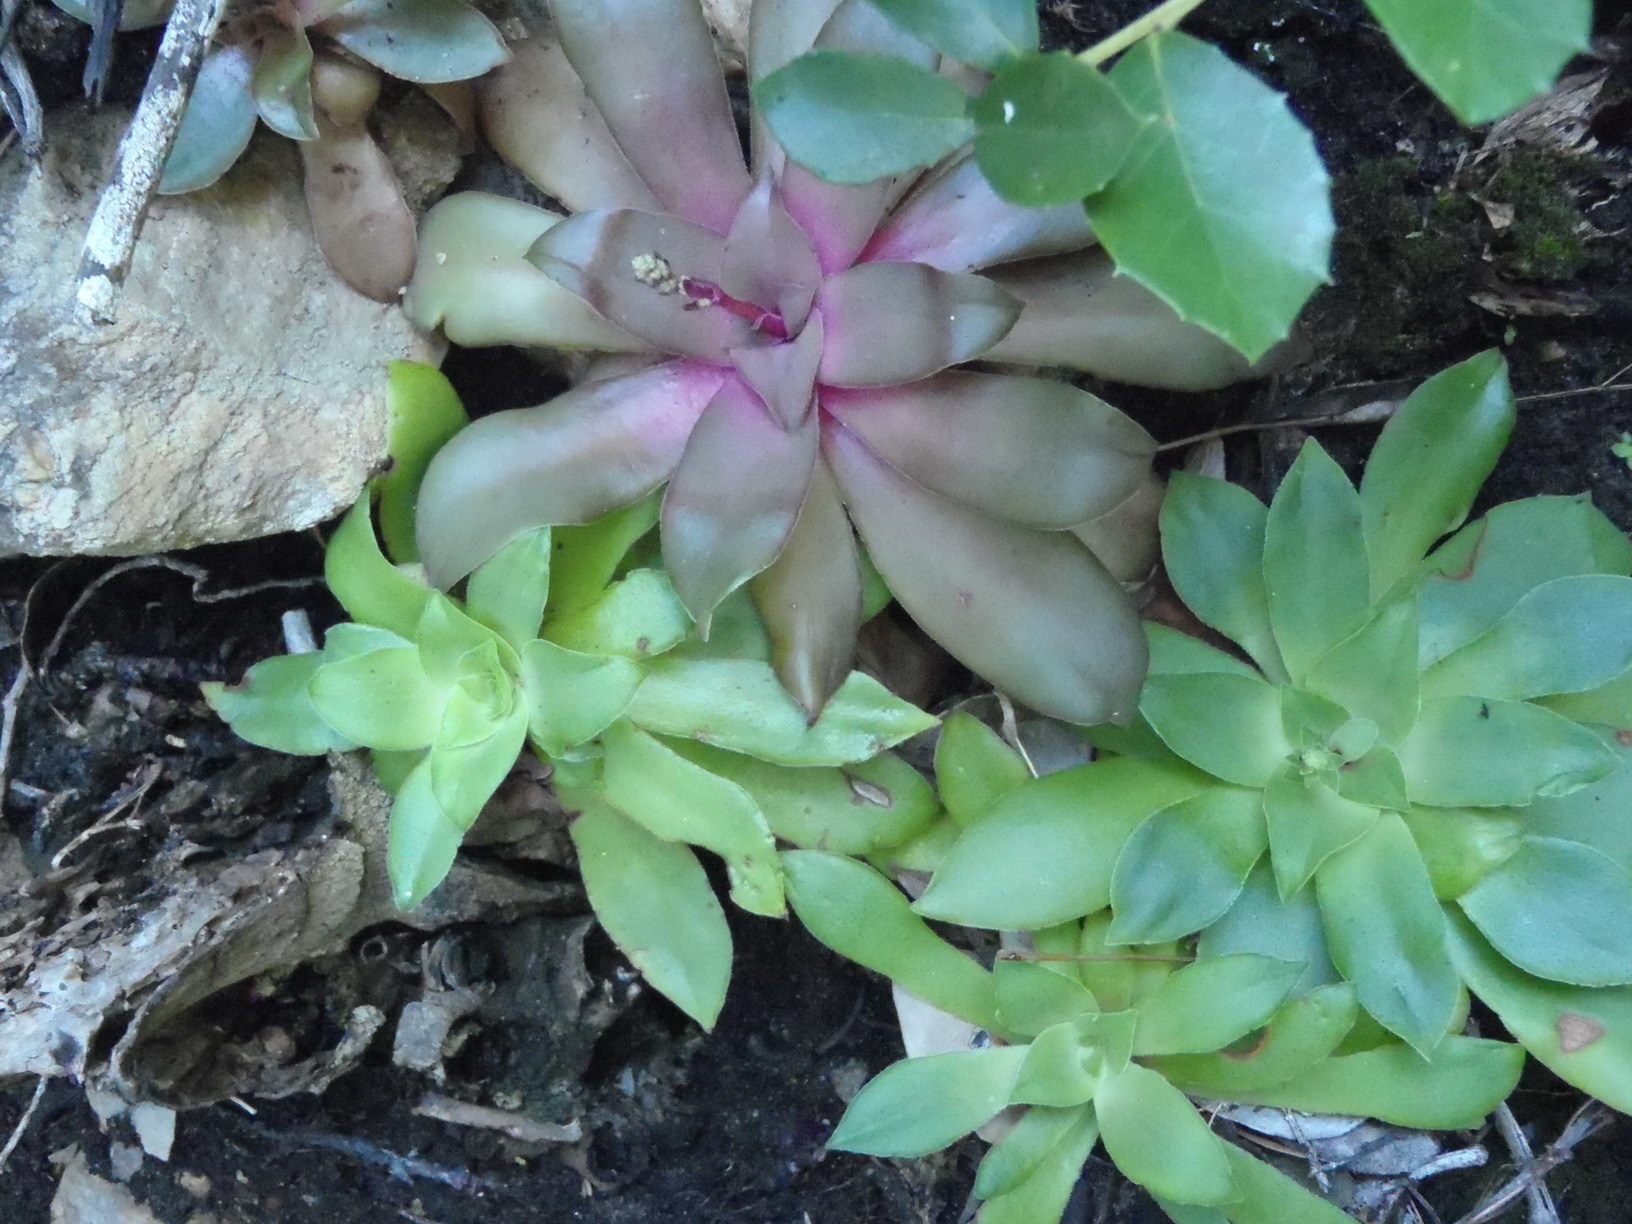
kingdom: Plantae
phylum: Tracheophyta
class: Magnoliopsida
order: Saxifragales
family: Crassulaceae
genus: Crassula
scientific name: Crassula orbicularis
